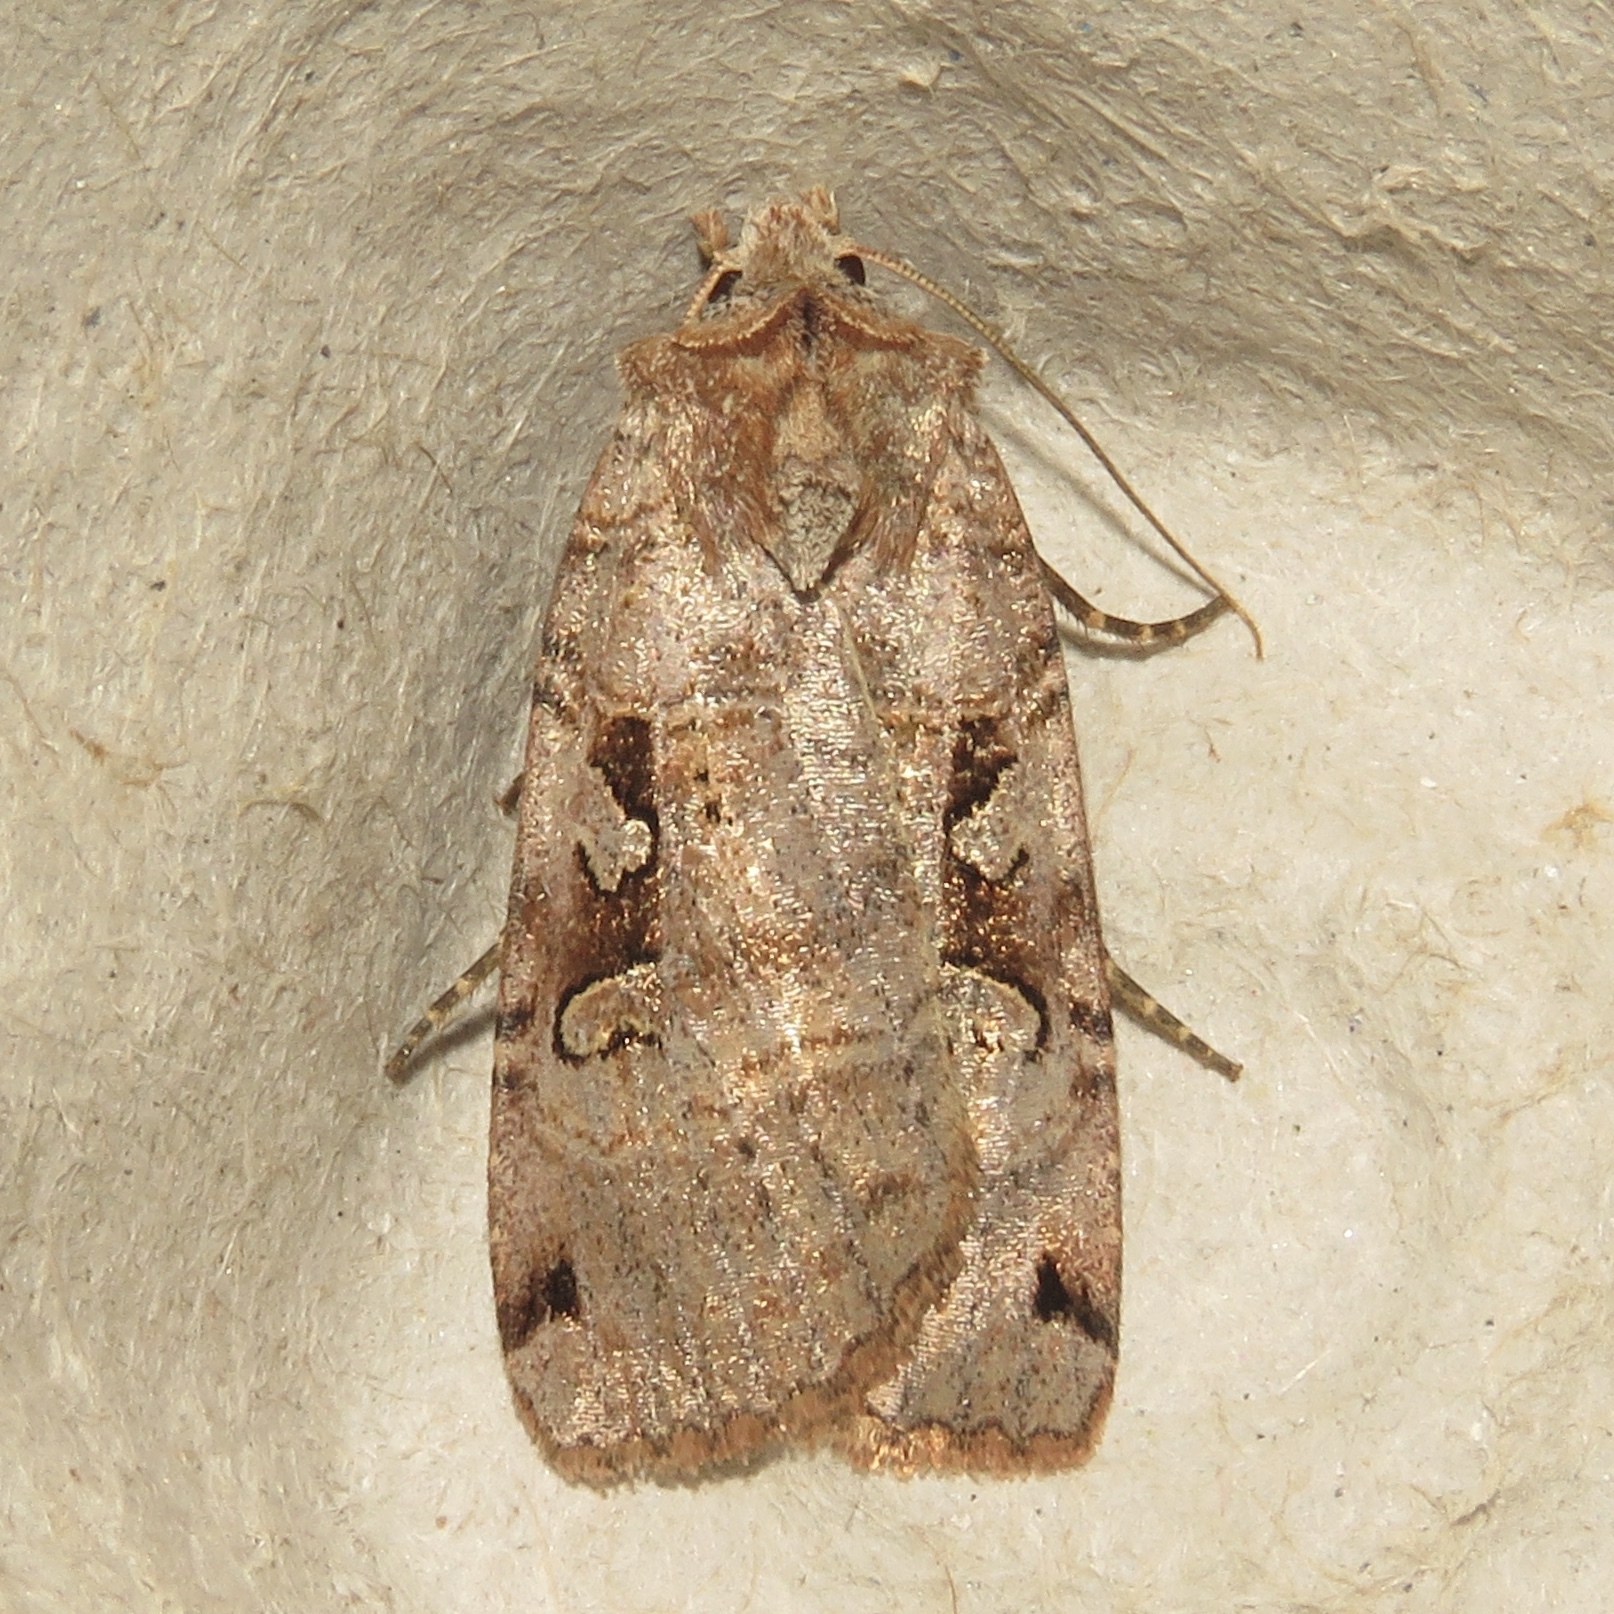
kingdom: Animalia
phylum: Arthropoda
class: Insecta
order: Lepidoptera
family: Noctuidae
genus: Xestia
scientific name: Xestia normaniana
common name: Norman's dart moth
